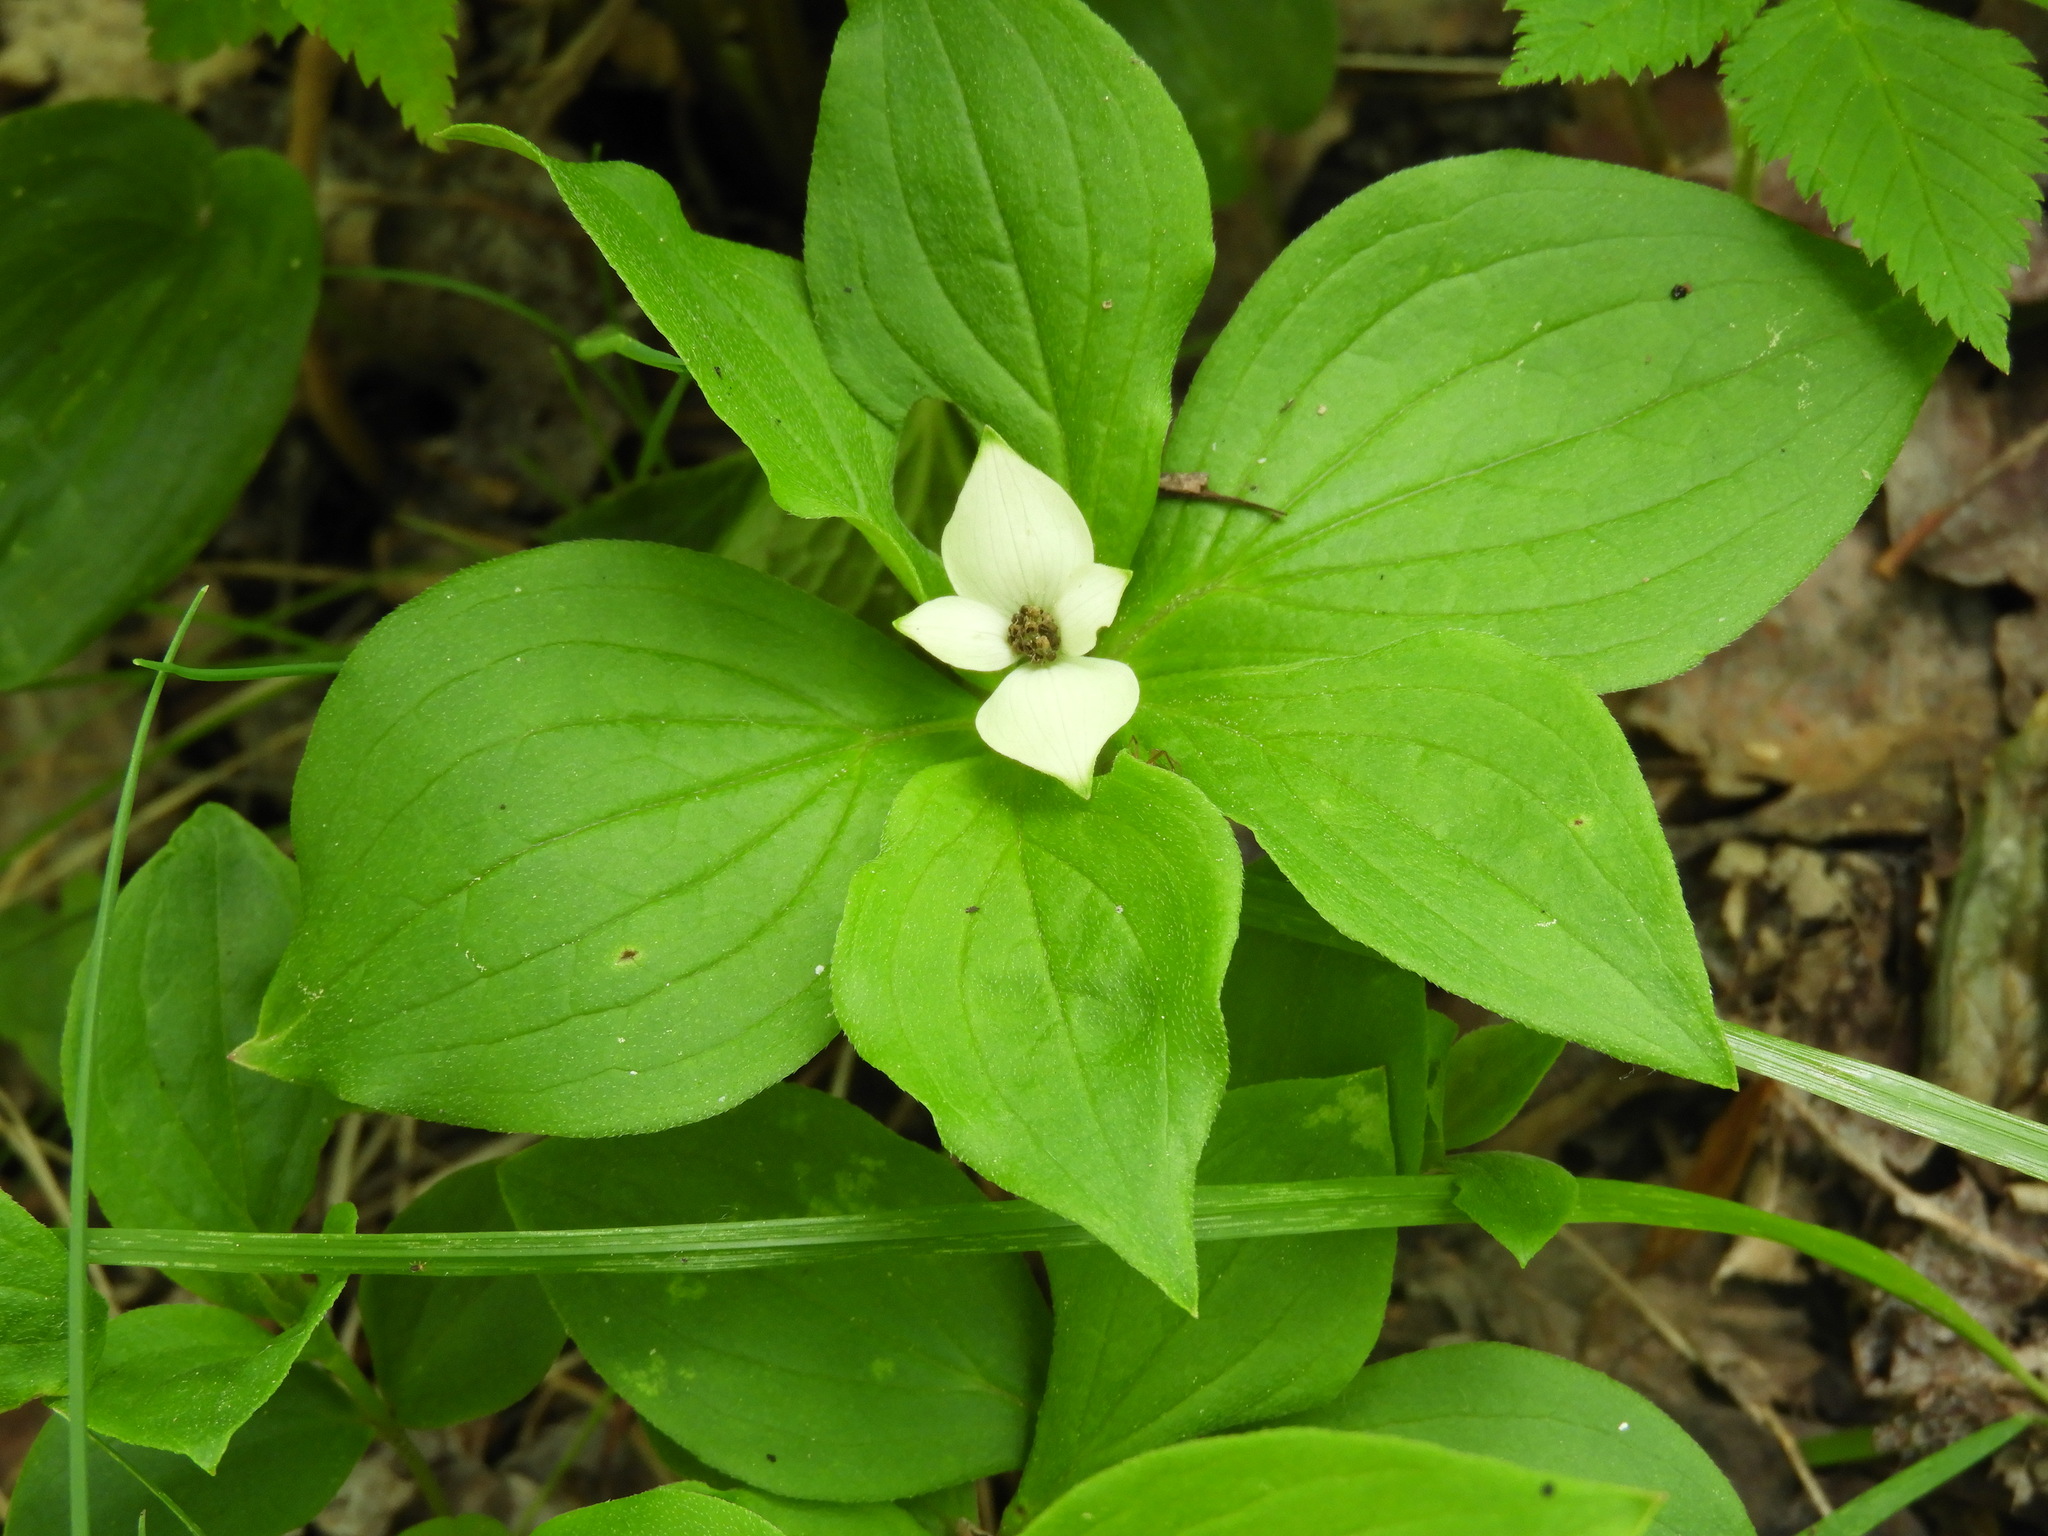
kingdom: Plantae
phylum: Tracheophyta
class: Magnoliopsida
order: Cornales
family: Cornaceae
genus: Cornus
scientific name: Cornus canadensis
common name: Creeping dogwood
